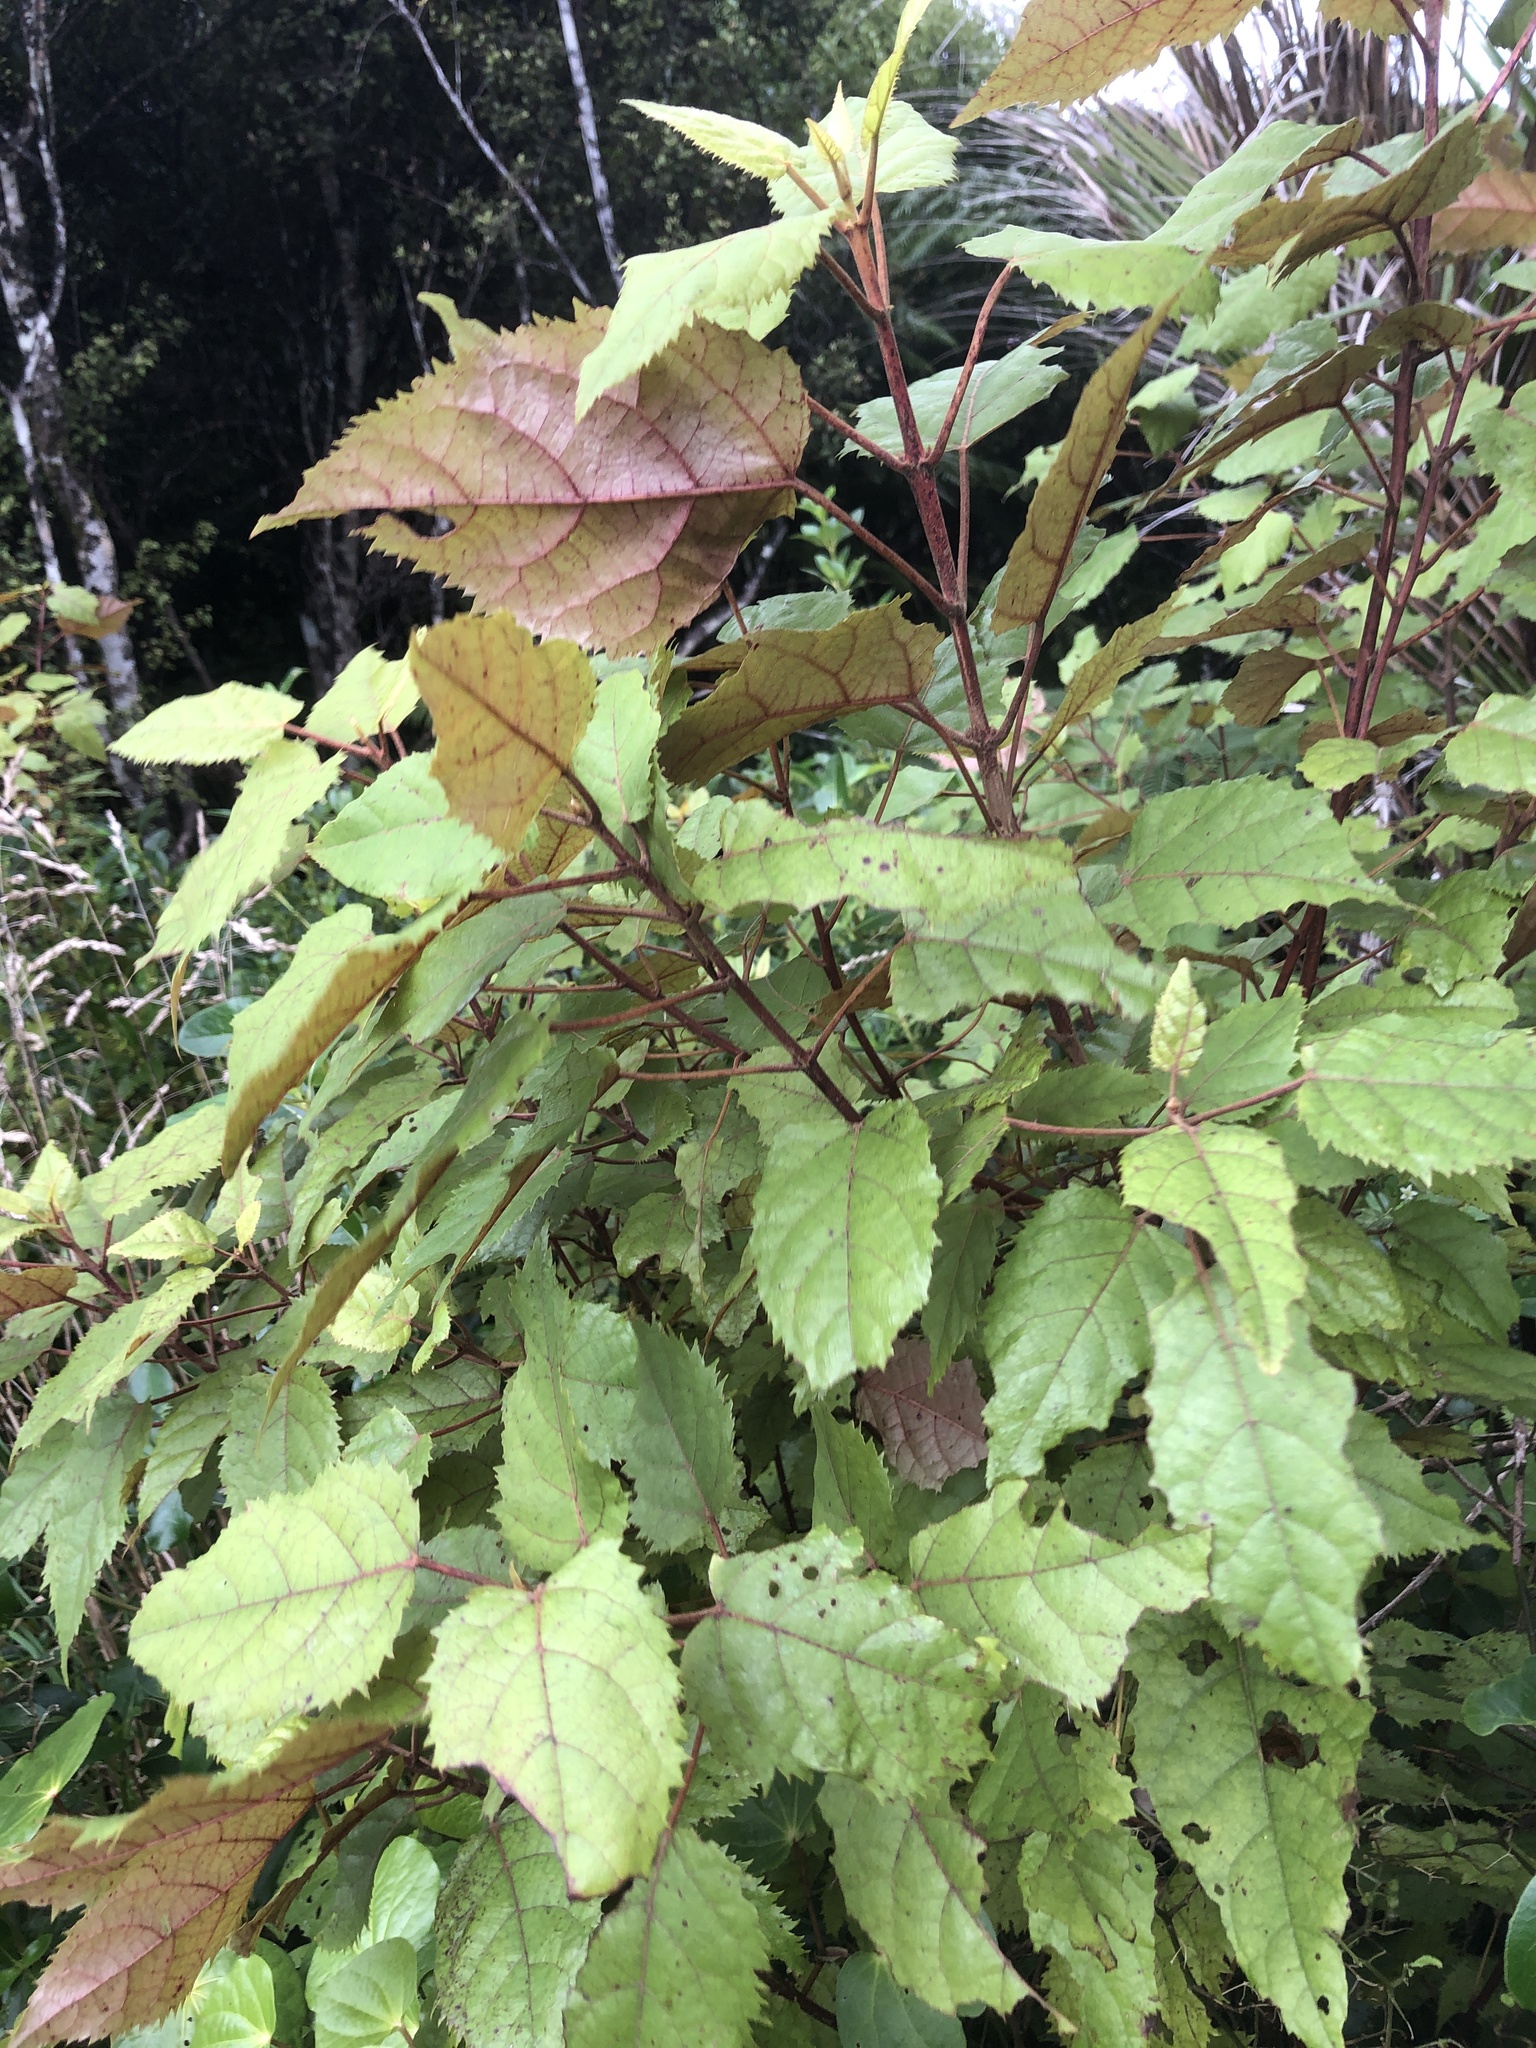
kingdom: Plantae
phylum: Tracheophyta
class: Magnoliopsida
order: Oxalidales
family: Elaeocarpaceae
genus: Aristotelia
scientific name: Aristotelia serrata
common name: New zealand wineberry
